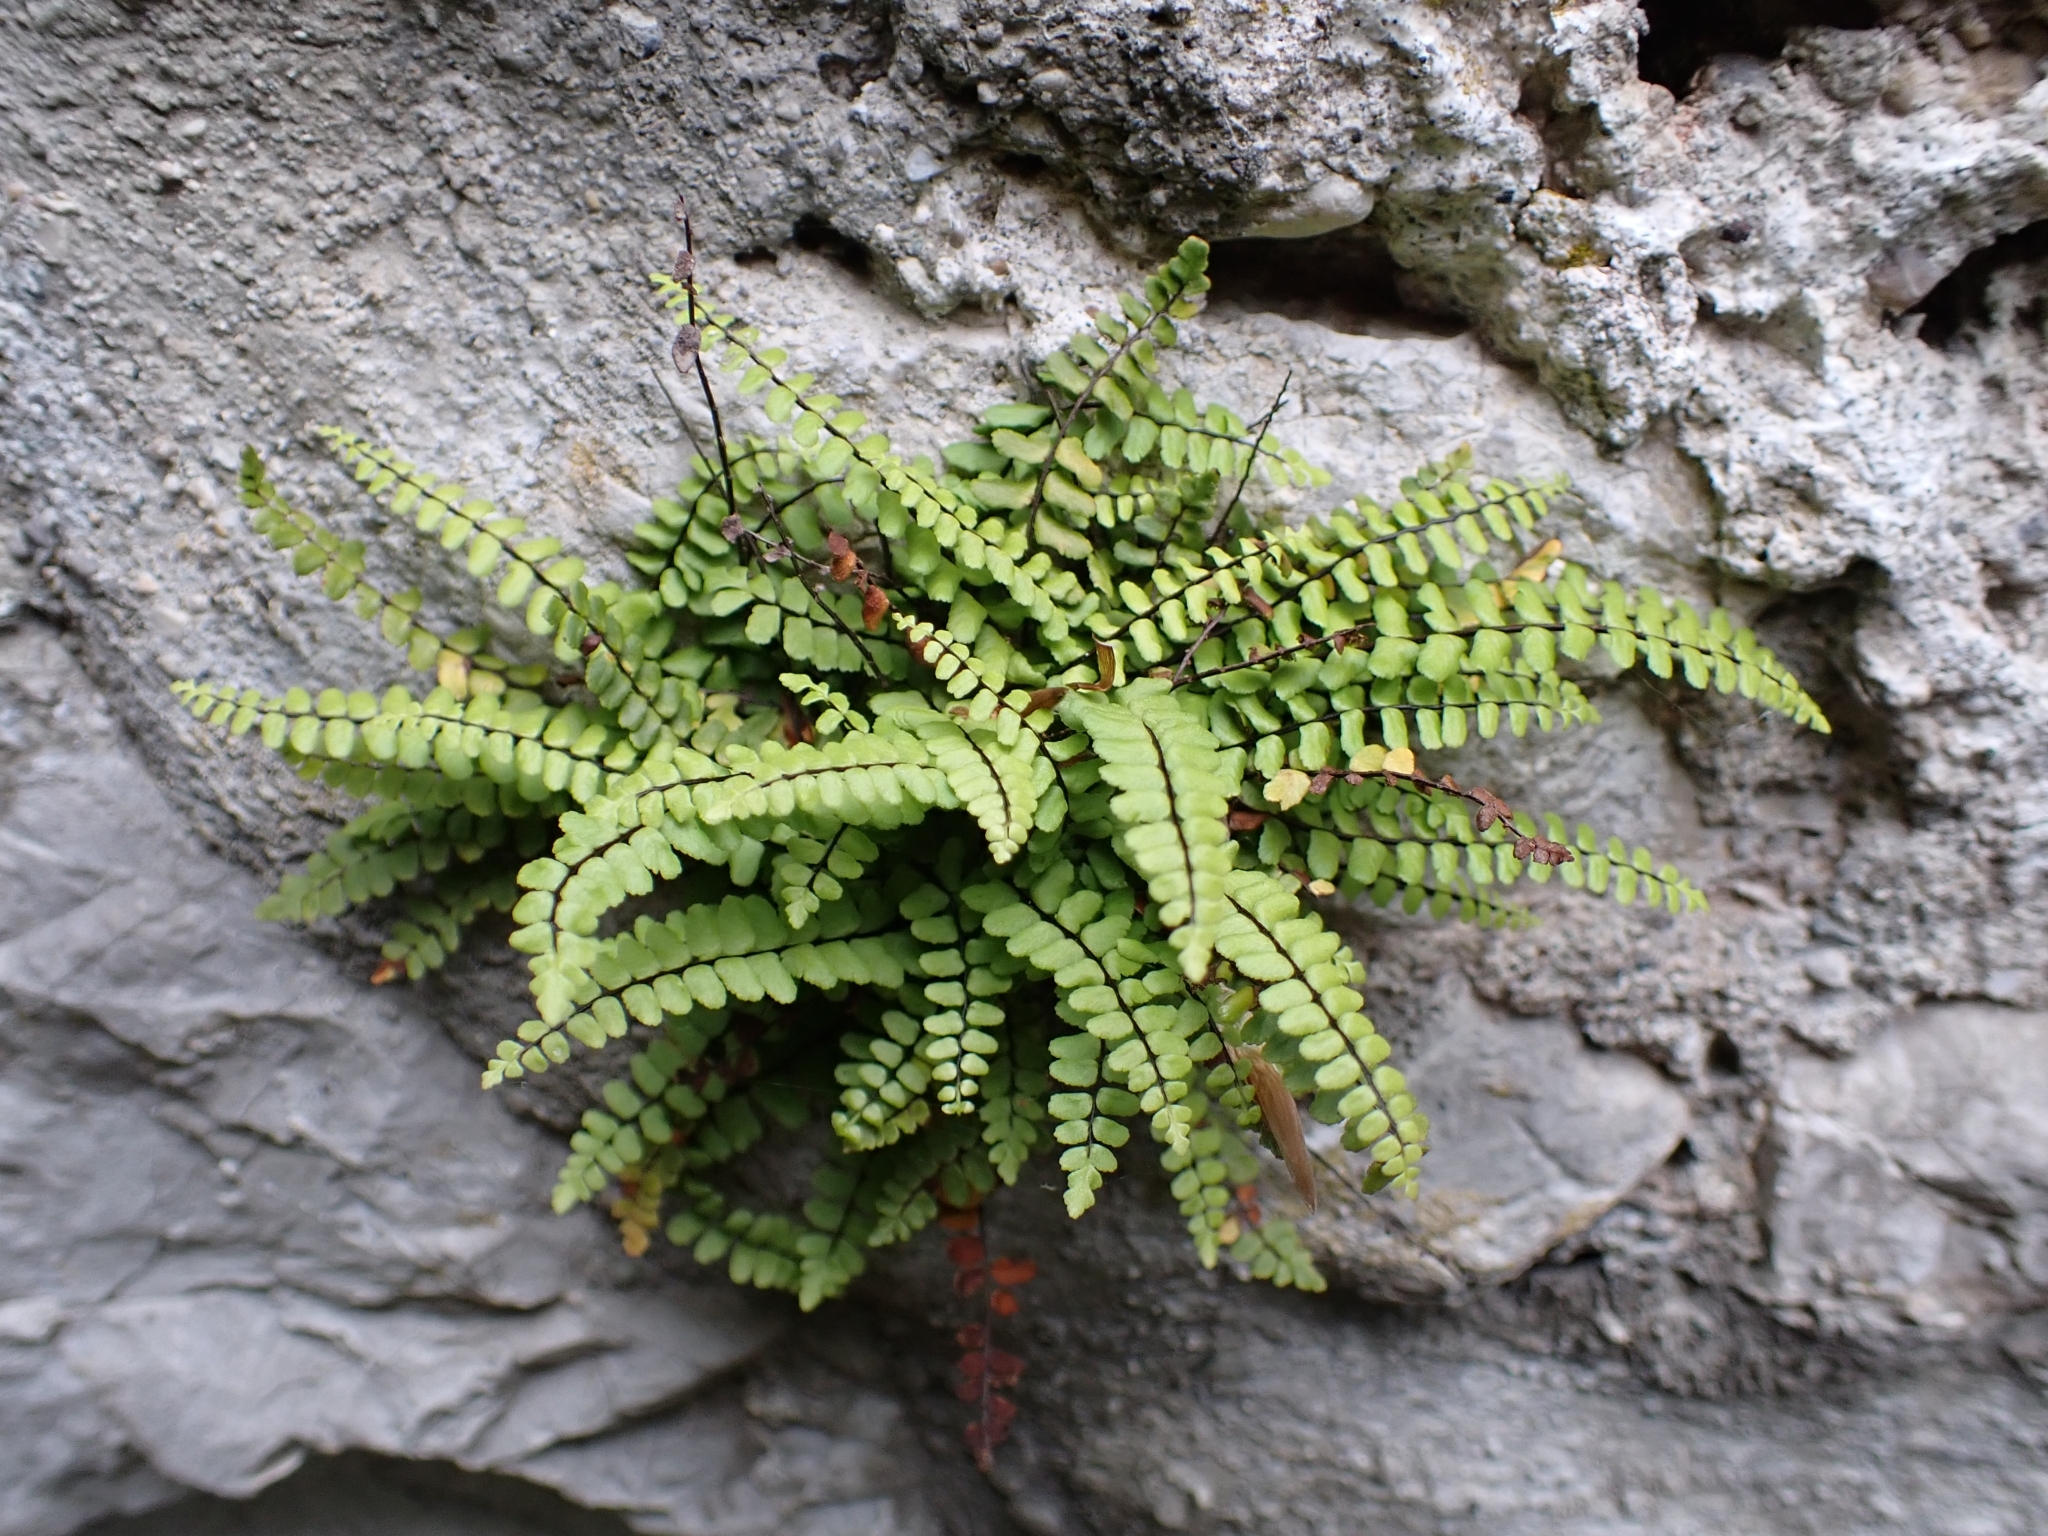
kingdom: Plantae
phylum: Tracheophyta
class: Polypodiopsida
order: Polypodiales
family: Aspleniaceae
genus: Asplenium
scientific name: Asplenium trichomanes
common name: Maidenhair spleenwort
